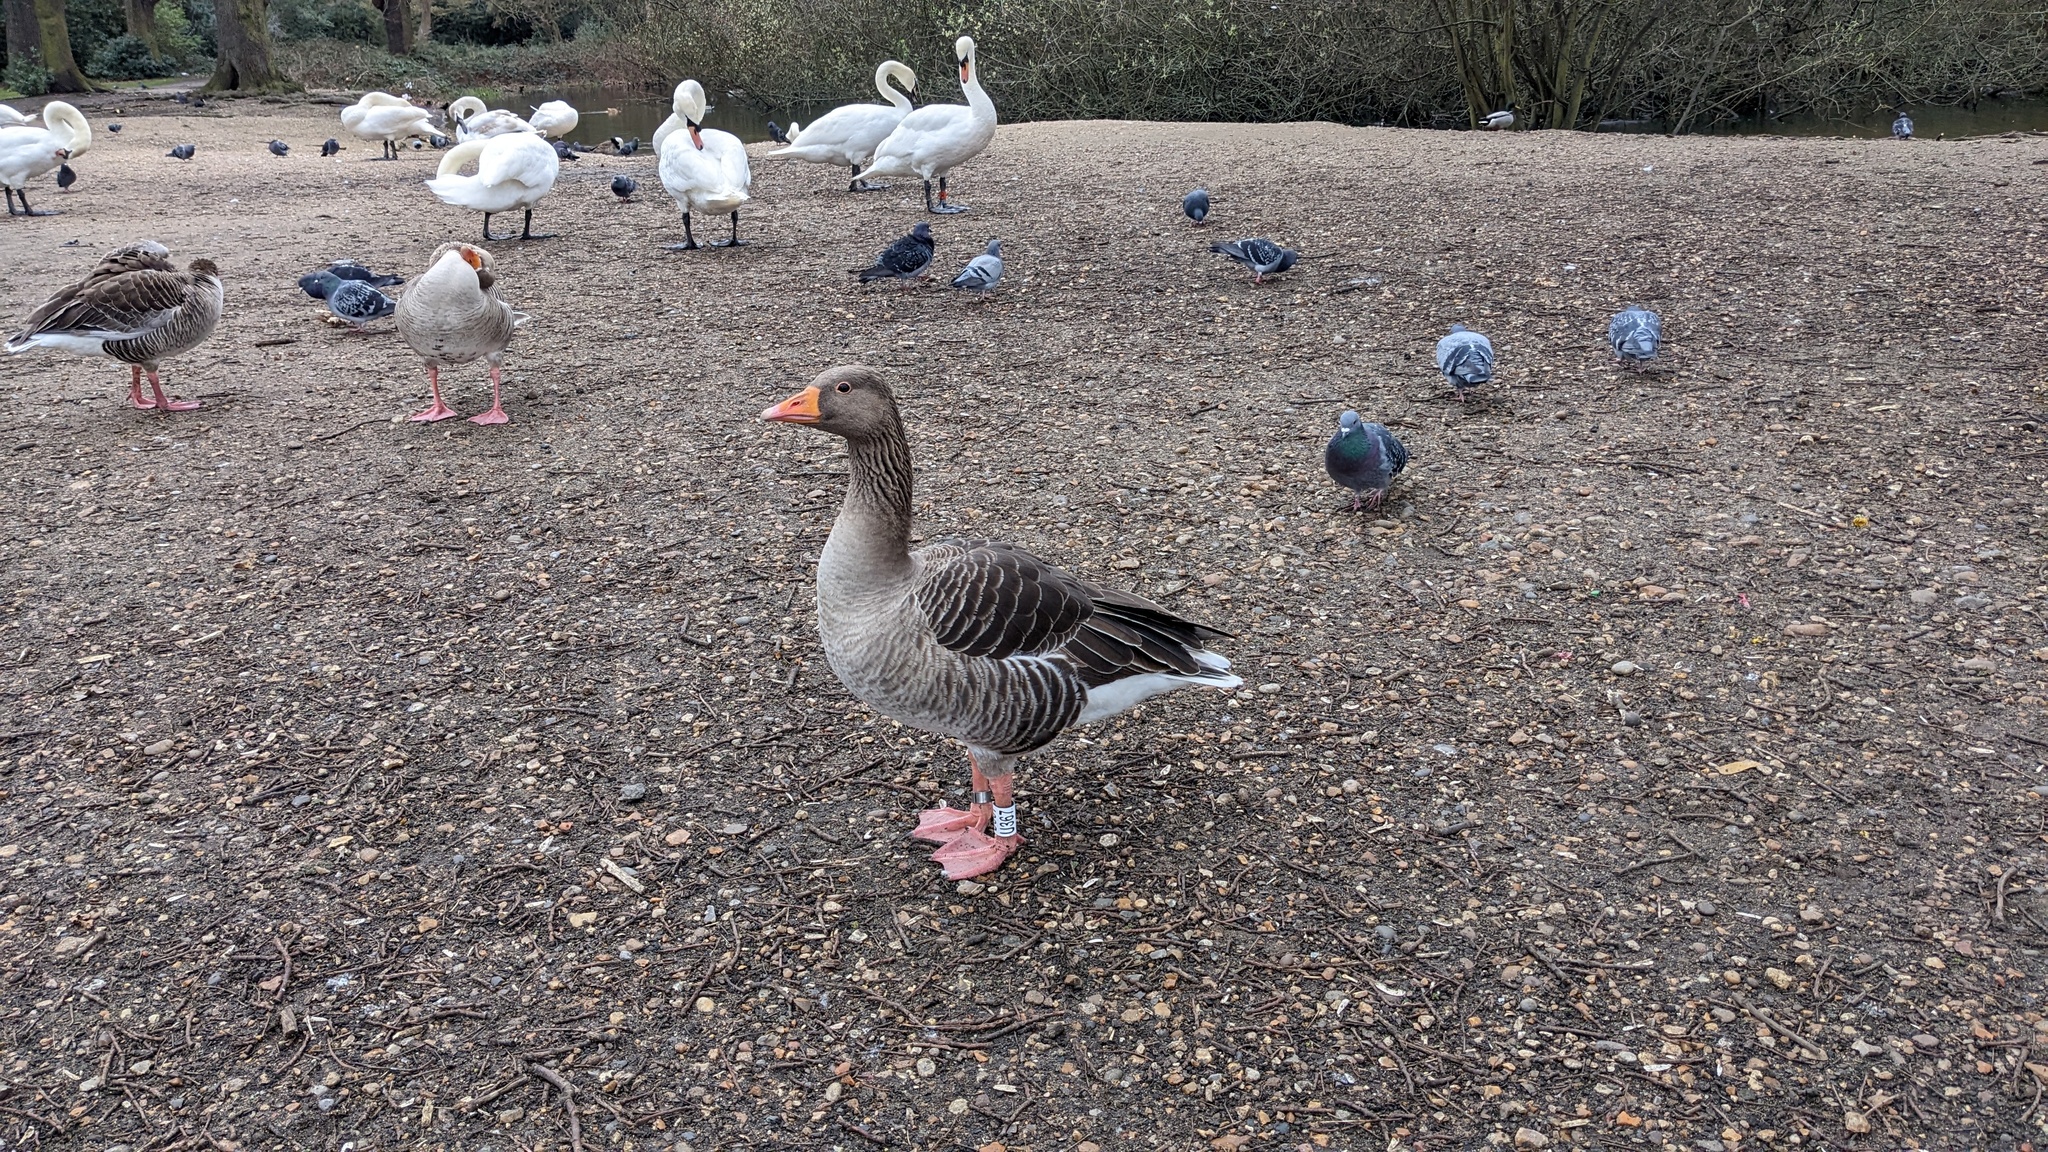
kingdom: Animalia
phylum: Chordata
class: Aves
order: Anseriformes
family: Anatidae
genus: Anser
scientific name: Anser anser
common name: Greylag goose
